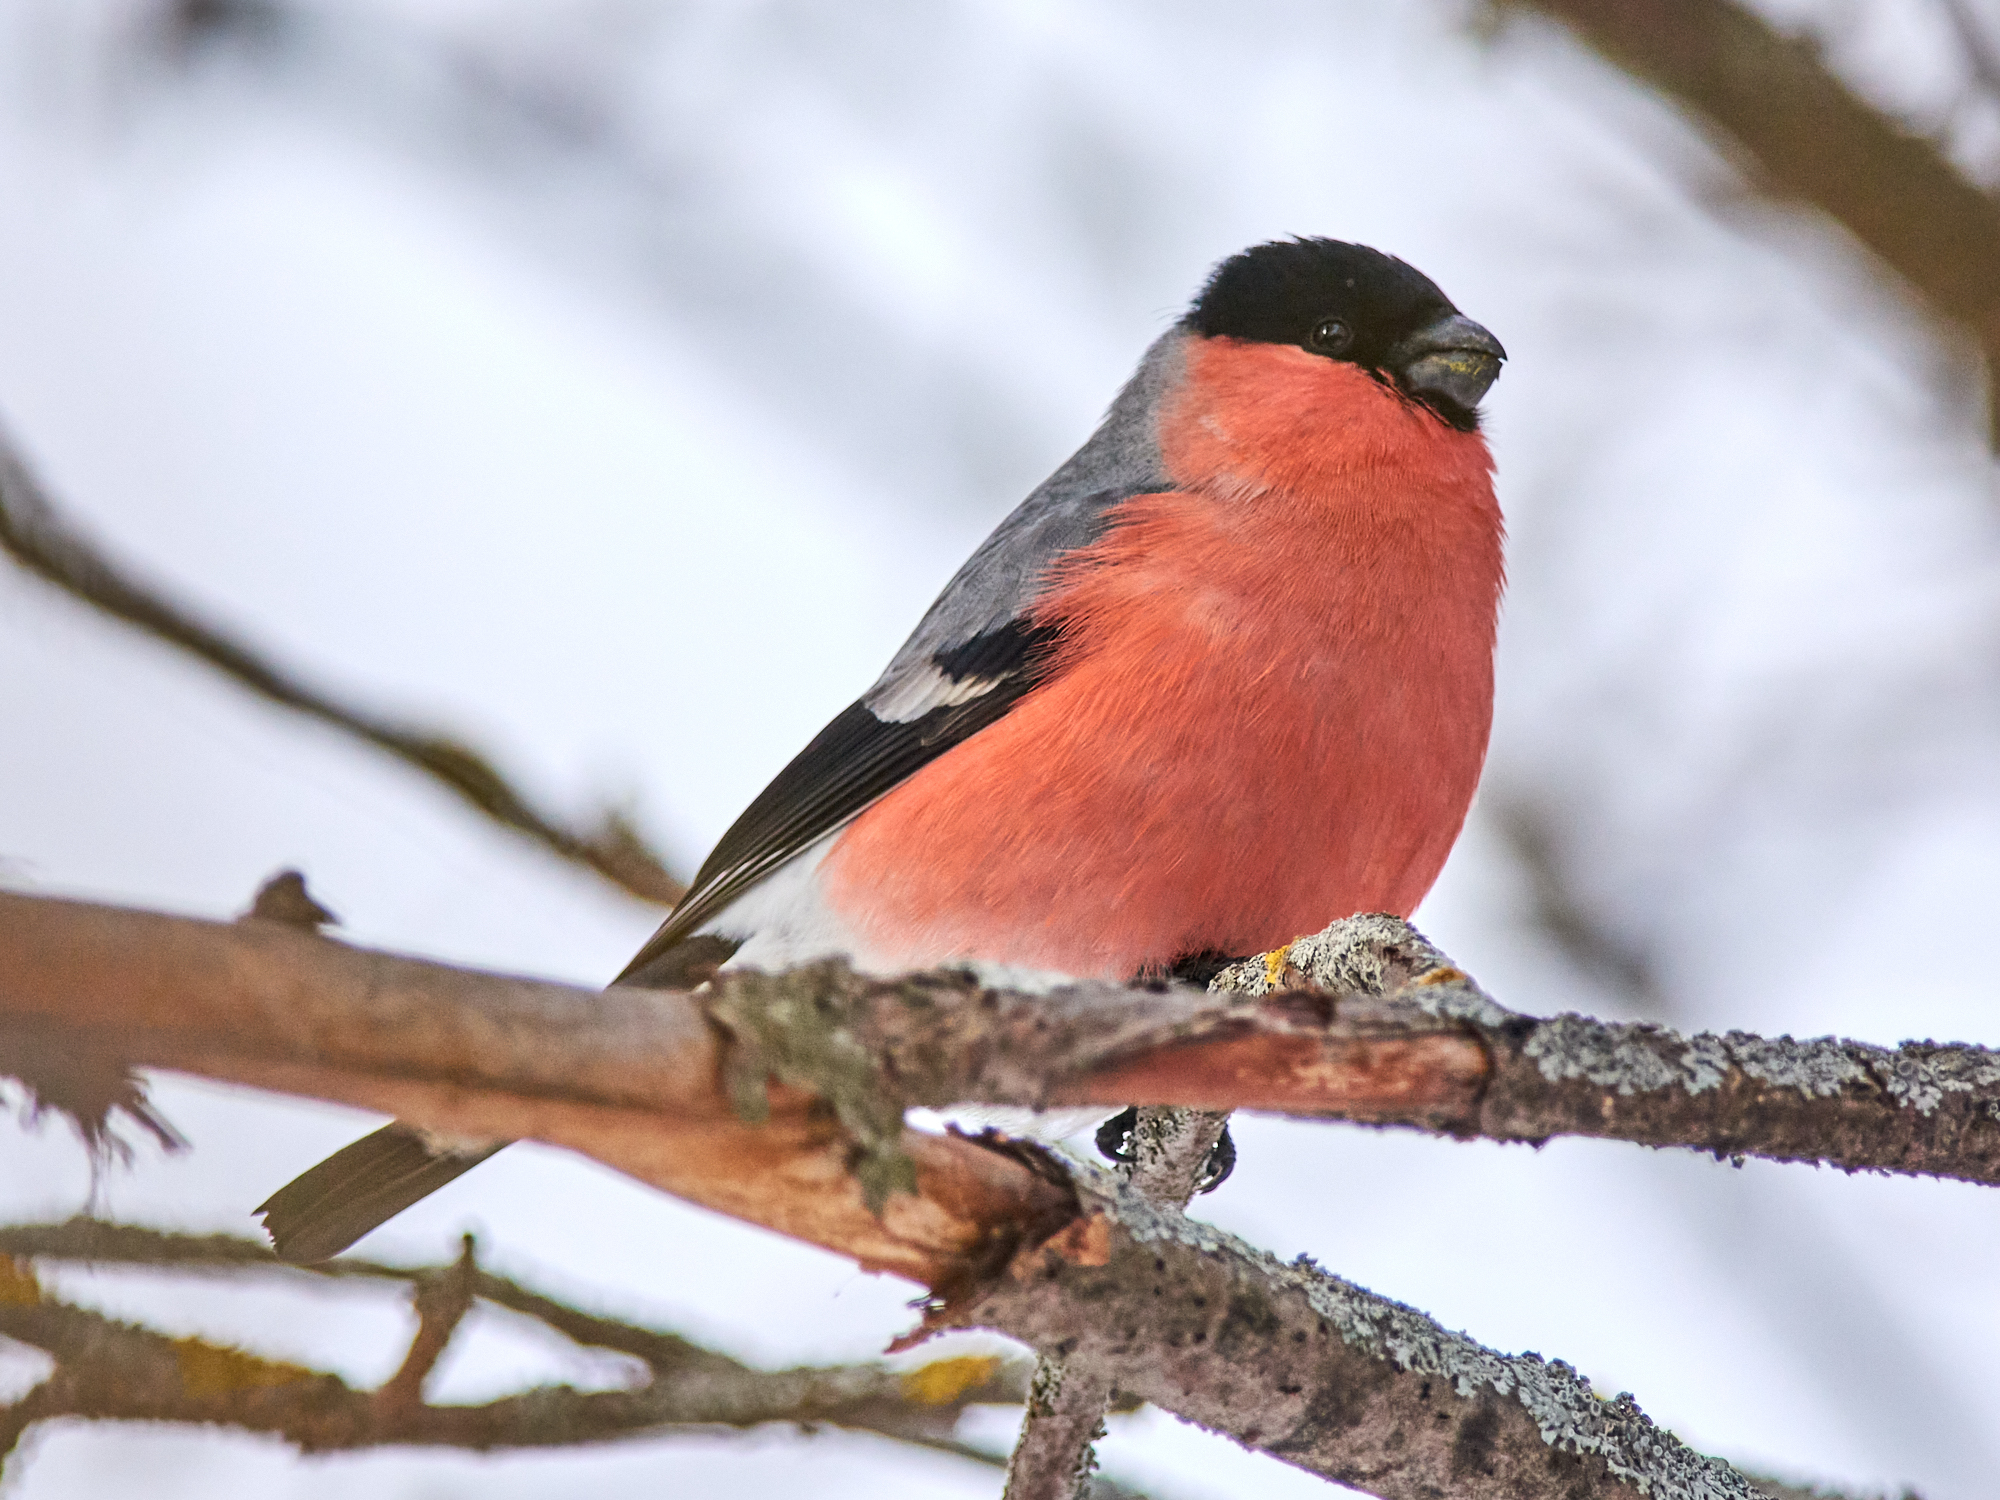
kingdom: Animalia
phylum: Chordata
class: Aves
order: Passeriformes
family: Fringillidae
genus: Pyrrhula
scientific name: Pyrrhula pyrrhula
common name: Eurasian bullfinch
